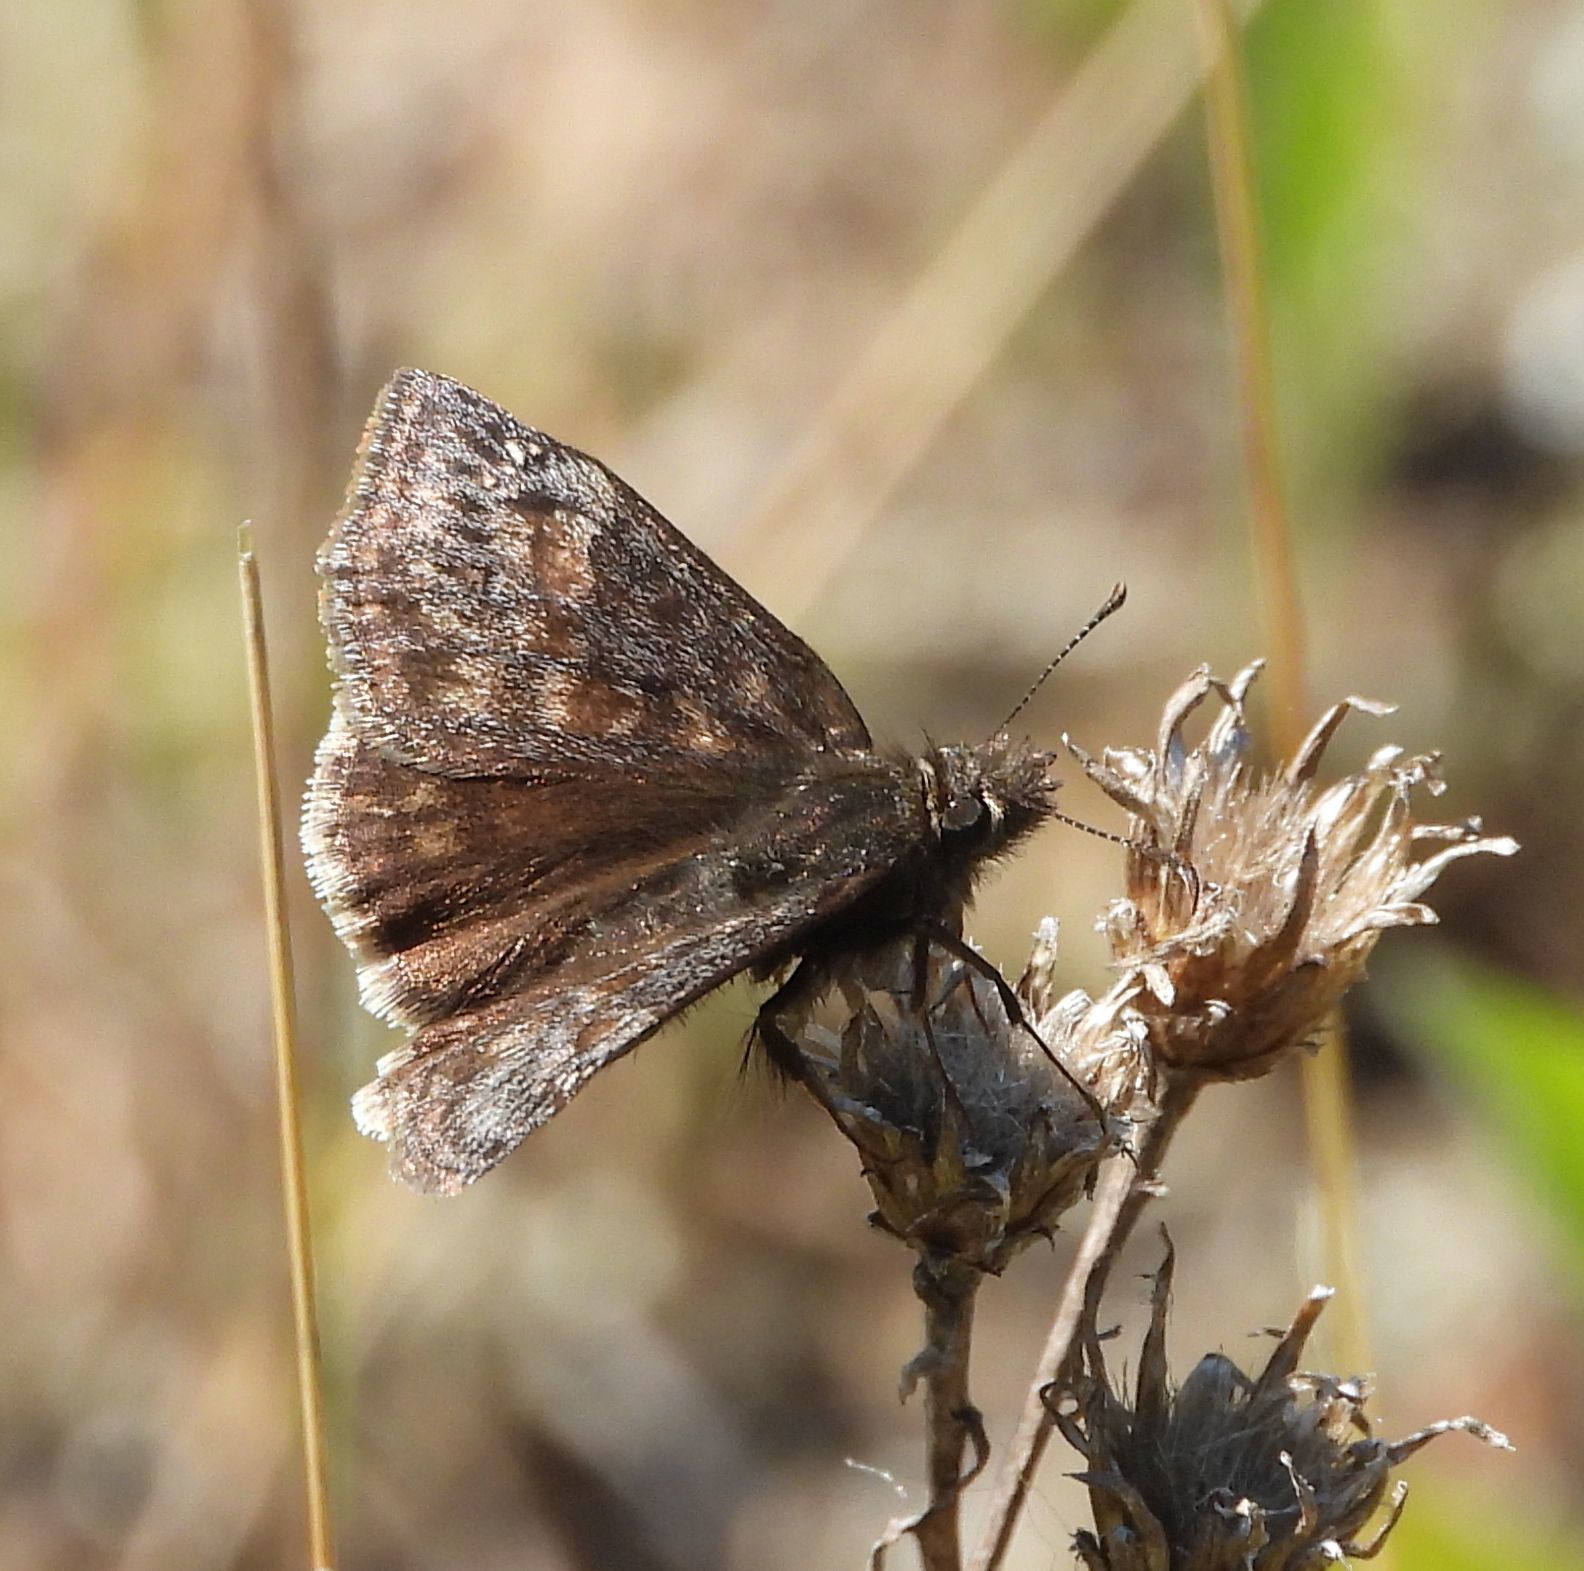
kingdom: Animalia
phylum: Arthropoda
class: Insecta
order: Lepidoptera
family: Hesperiidae
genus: Erynnis
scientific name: Erynnis baptisiae
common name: Wild indigo duskywing
